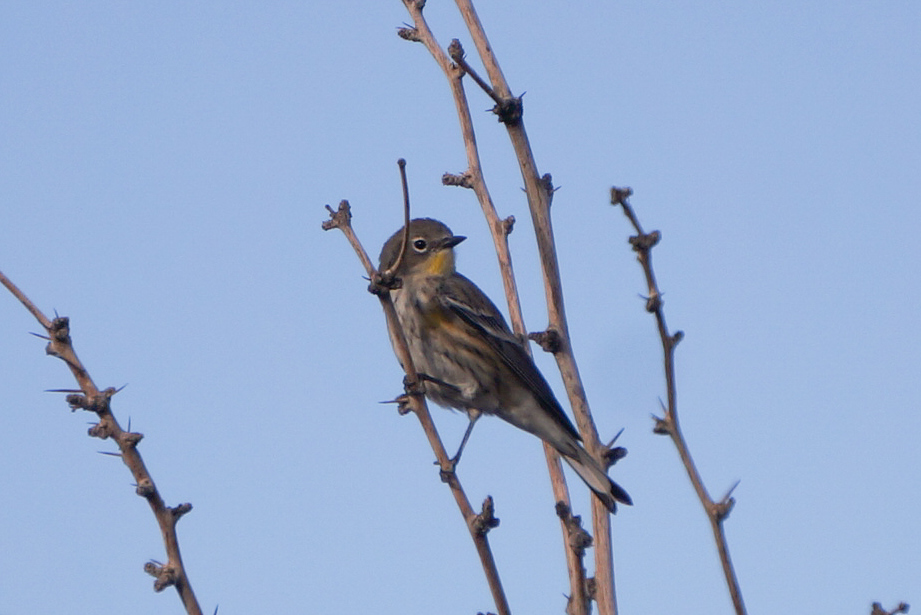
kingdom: Animalia
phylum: Chordata
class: Aves
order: Passeriformes
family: Parulidae
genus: Setophaga
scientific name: Setophaga auduboni
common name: Audubon's warbler
